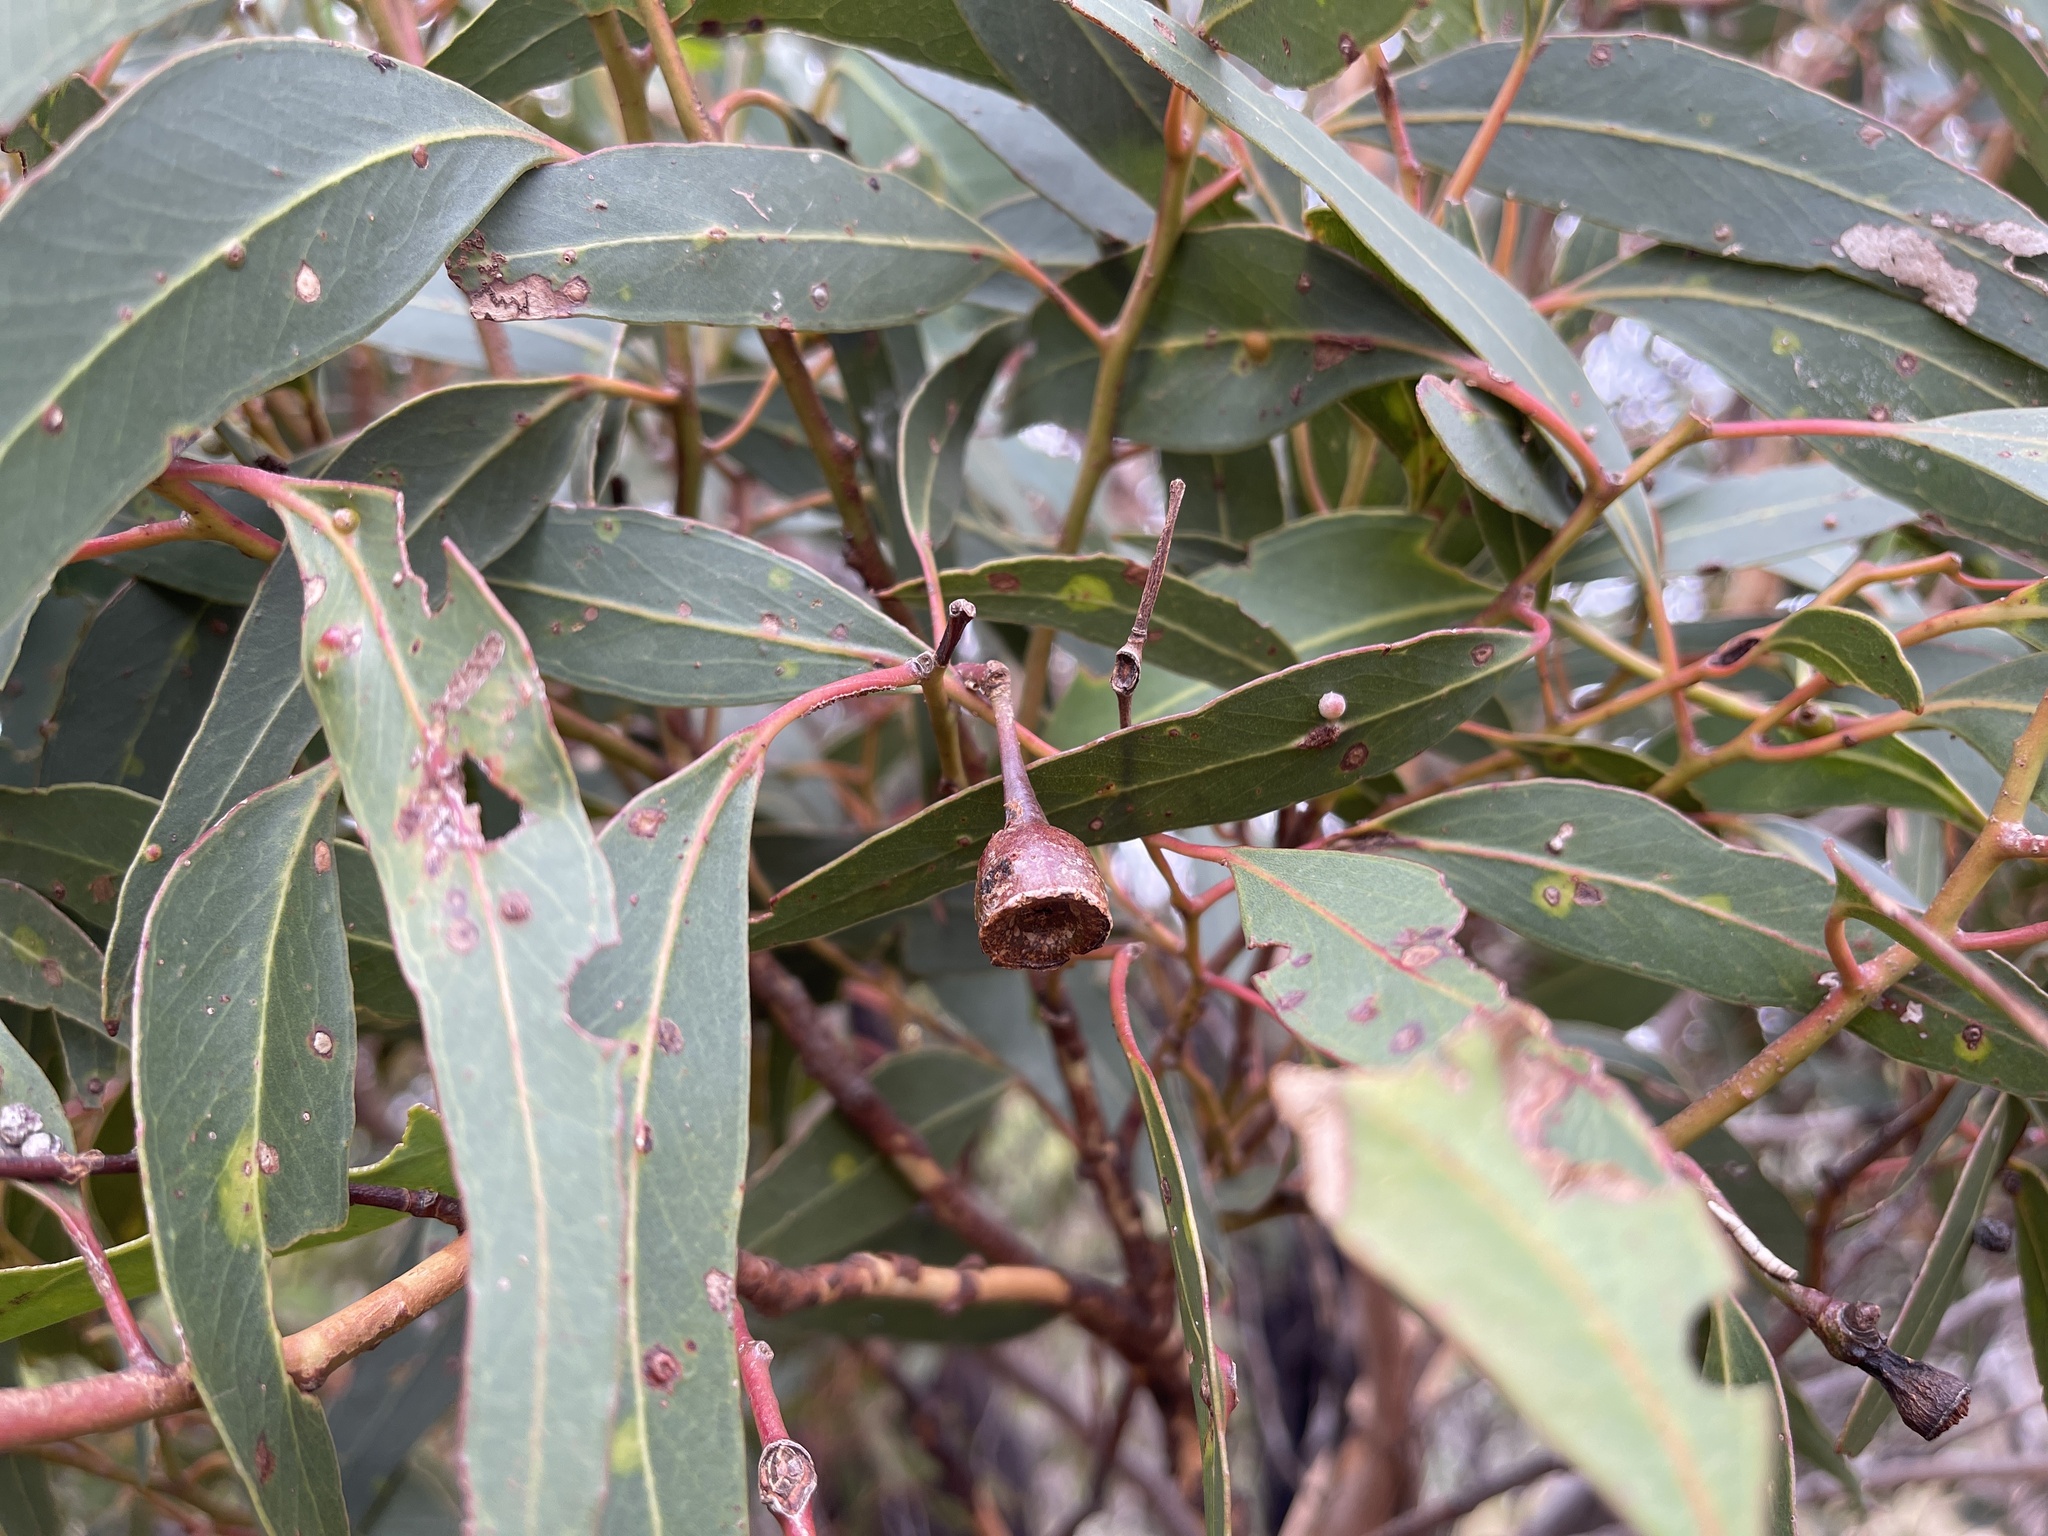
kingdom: Plantae
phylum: Tracheophyta
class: Magnoliopsida
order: Myrtales
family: Myrtaceae
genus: Eucalyptus
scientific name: Eucalyptus tricarpa
